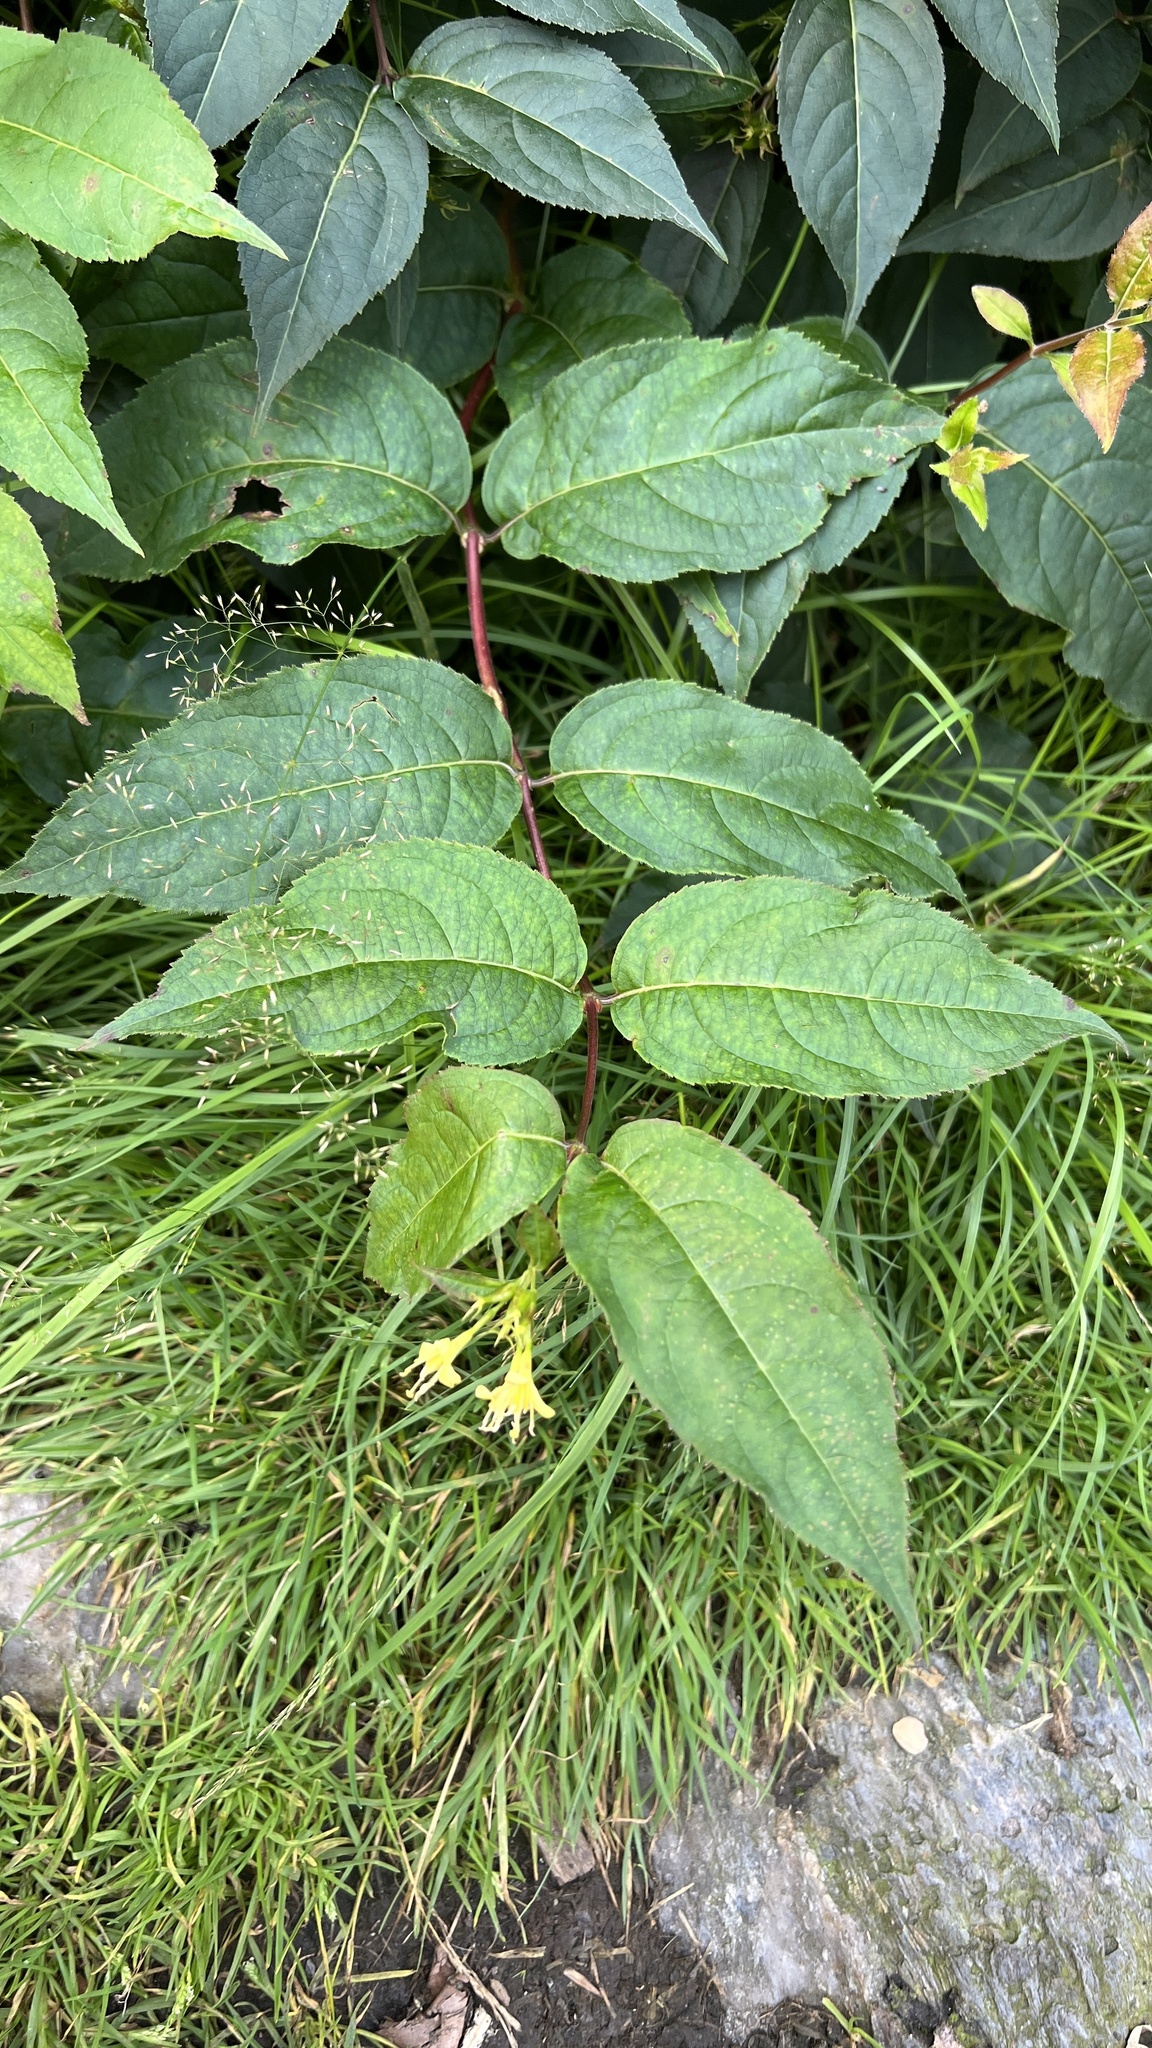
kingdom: Plantae
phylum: Tracheophyta
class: Magnoliopsida
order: Dipsacales
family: Caprifoliaceae
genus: Diervilla
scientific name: Diervilla lonicera
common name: Bush-honeysuckle
